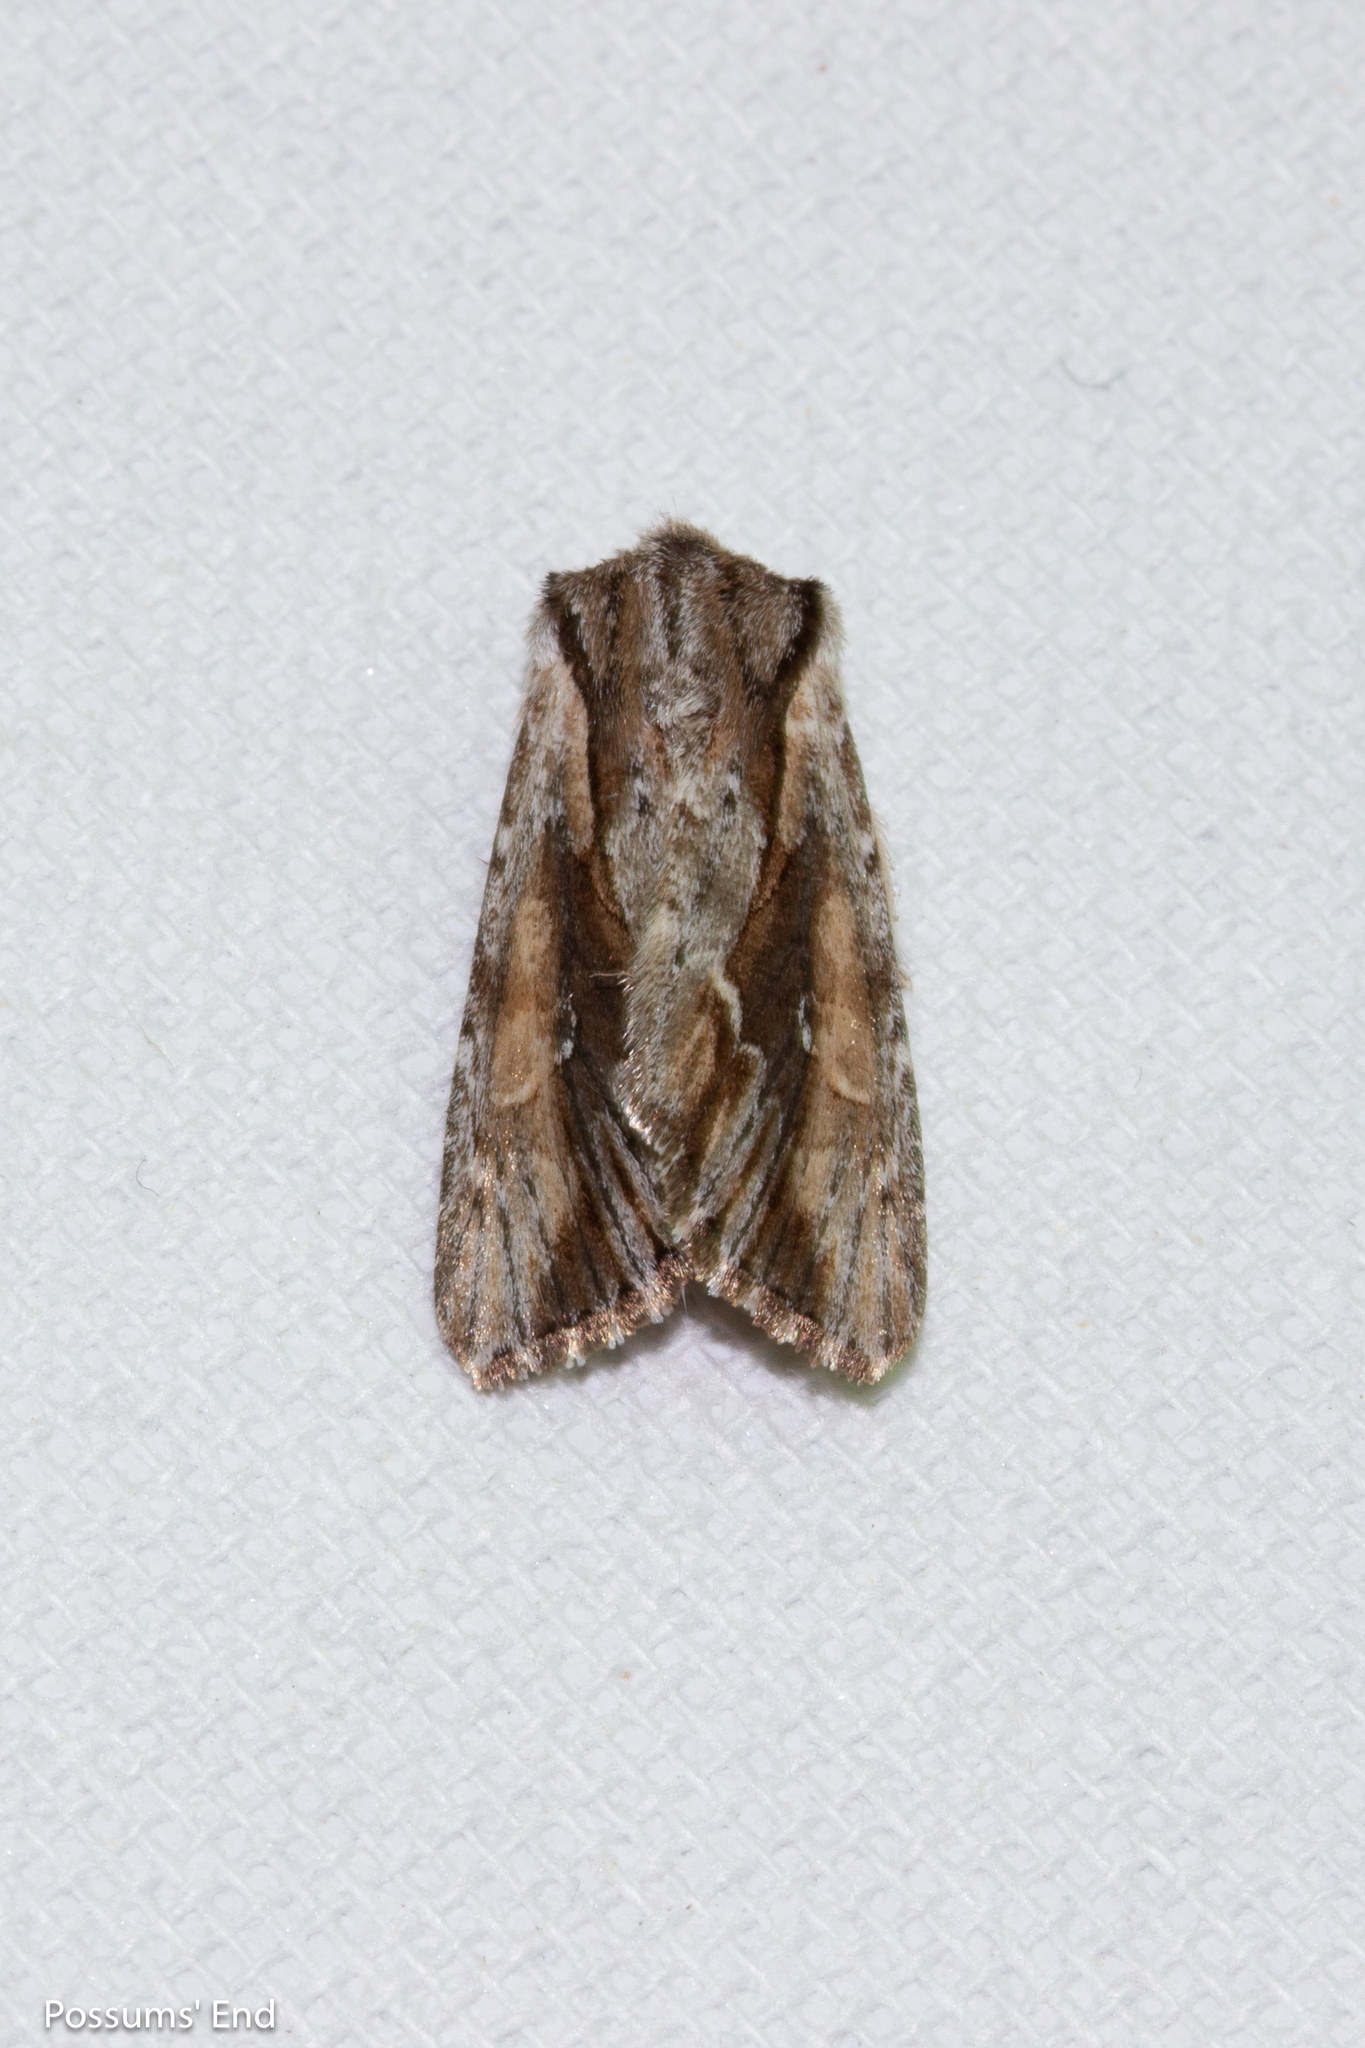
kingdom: Animalia
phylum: Arthropoda
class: Insecta
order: Lepidoptera
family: Noctuidae
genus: Ichneutica
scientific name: Ichneutica
